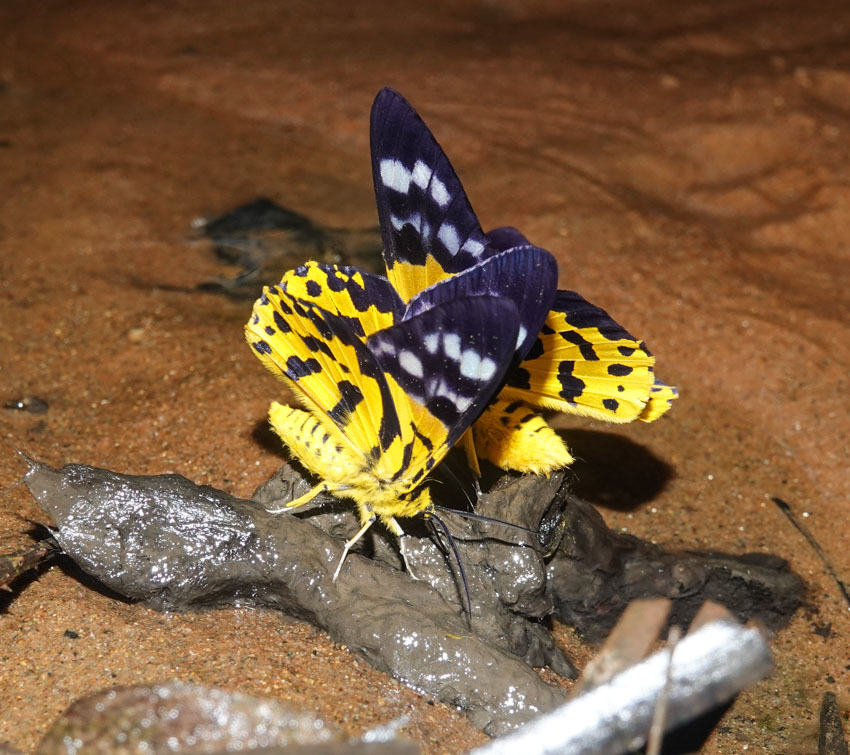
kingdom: Animalia
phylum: Arthropoda
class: Insecta
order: Lepidoptera
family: Geometridae
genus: Dysphania
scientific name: Dysphania militaris
